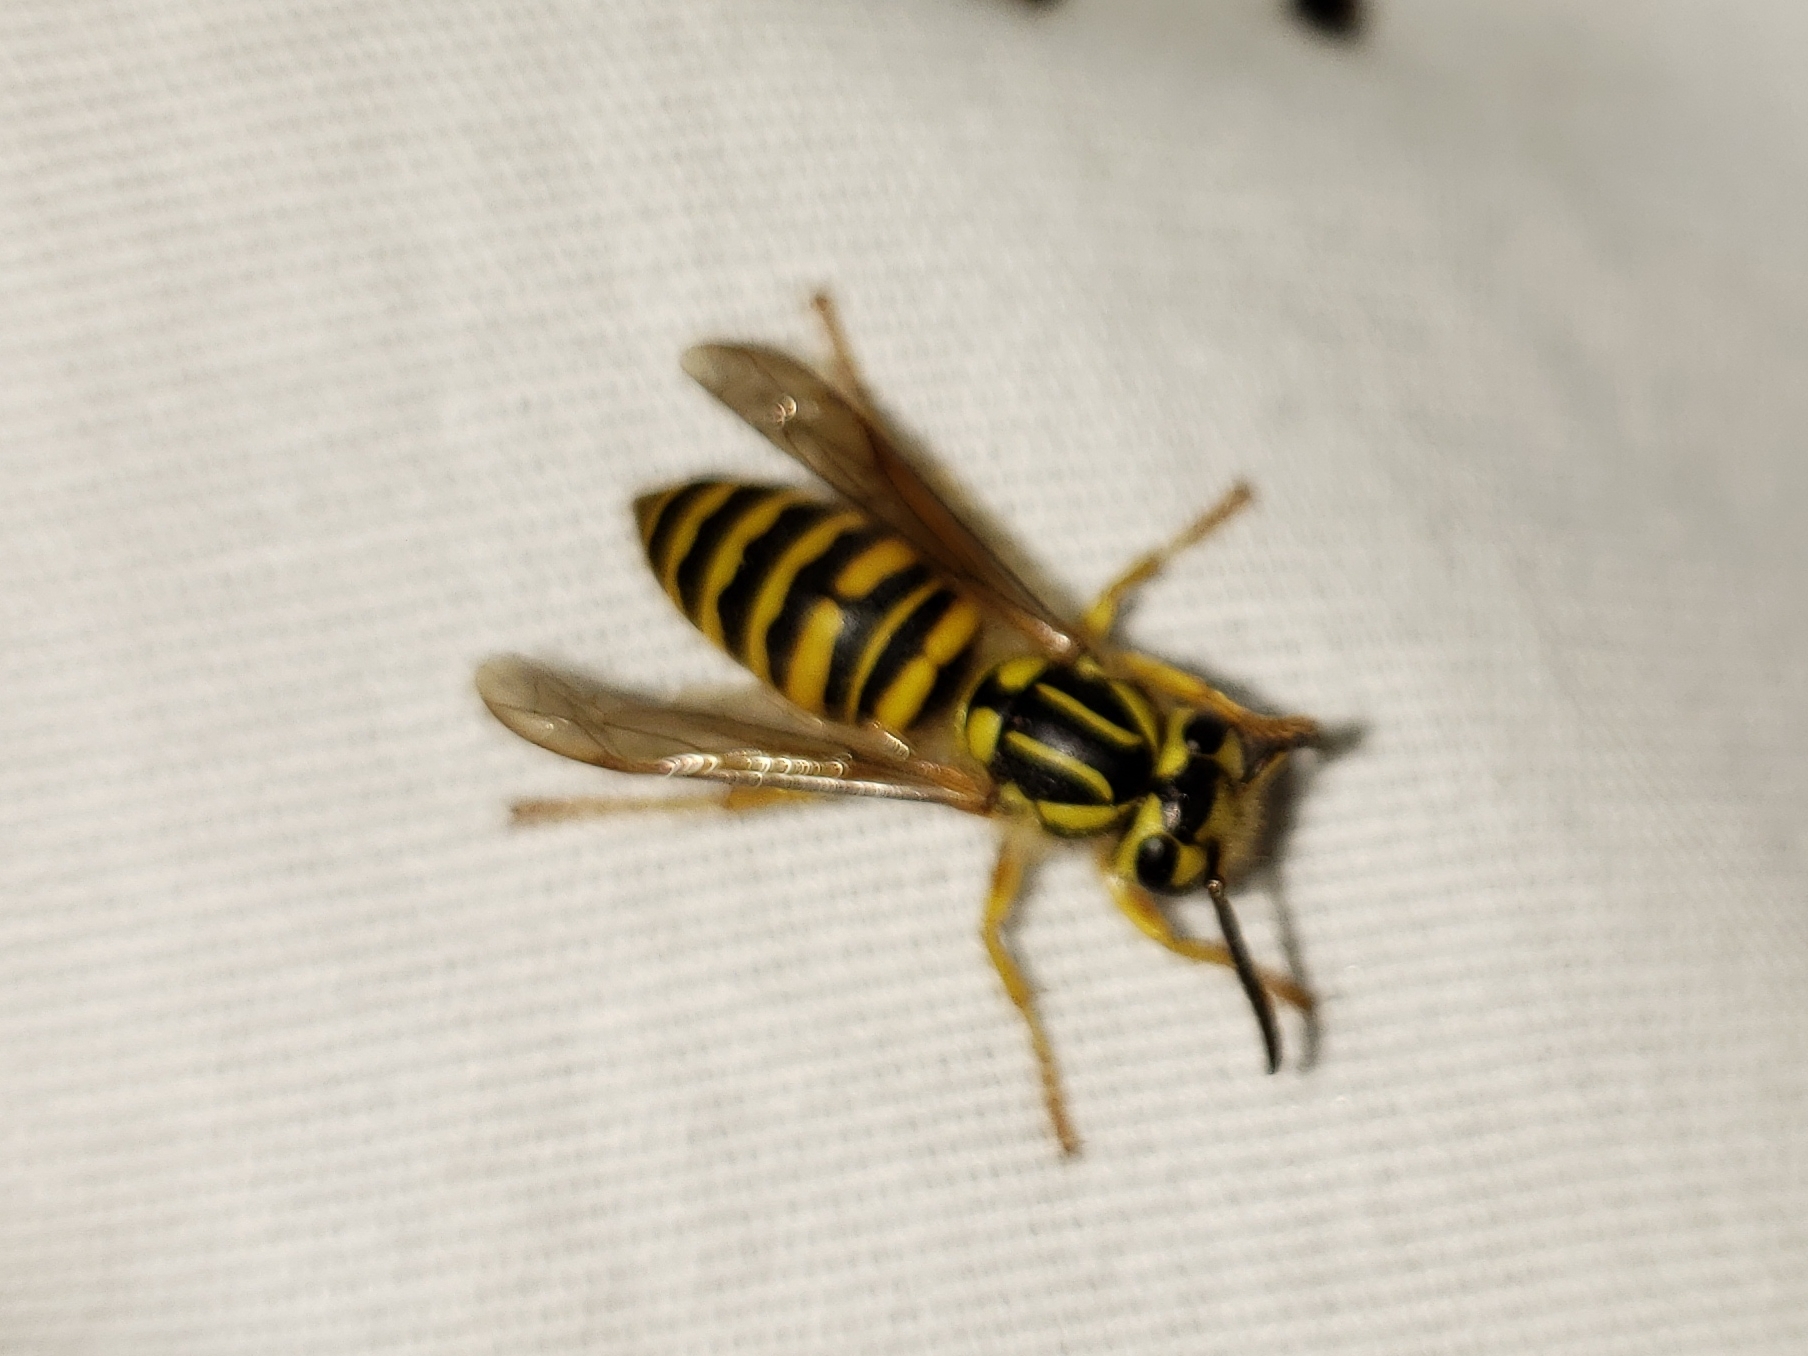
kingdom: Animalia
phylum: Arthropoda
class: Insecta
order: Hymenoptera
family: Vespidae
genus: Vespula
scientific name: Vespula squamosa
